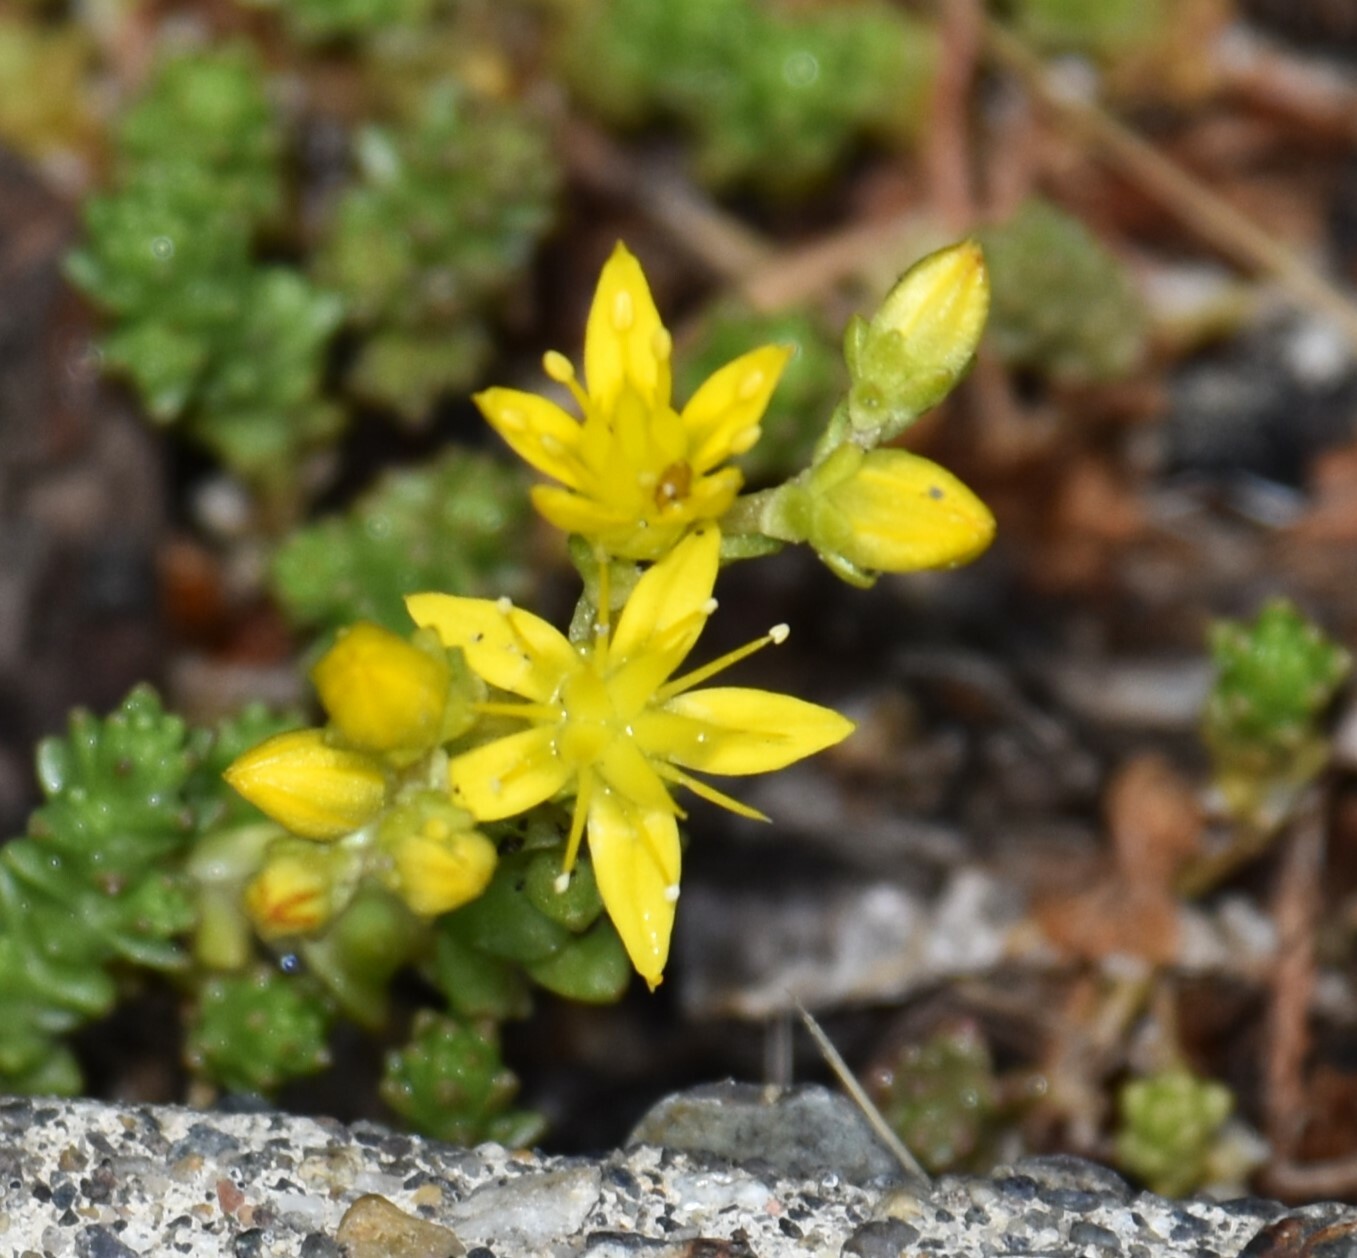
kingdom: Plantae
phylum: Tracheophyta
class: Magnoliopsida
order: Saxifragales
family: Crassulaceae
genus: Sedum
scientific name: Sedum acre
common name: Biting stonecrop
